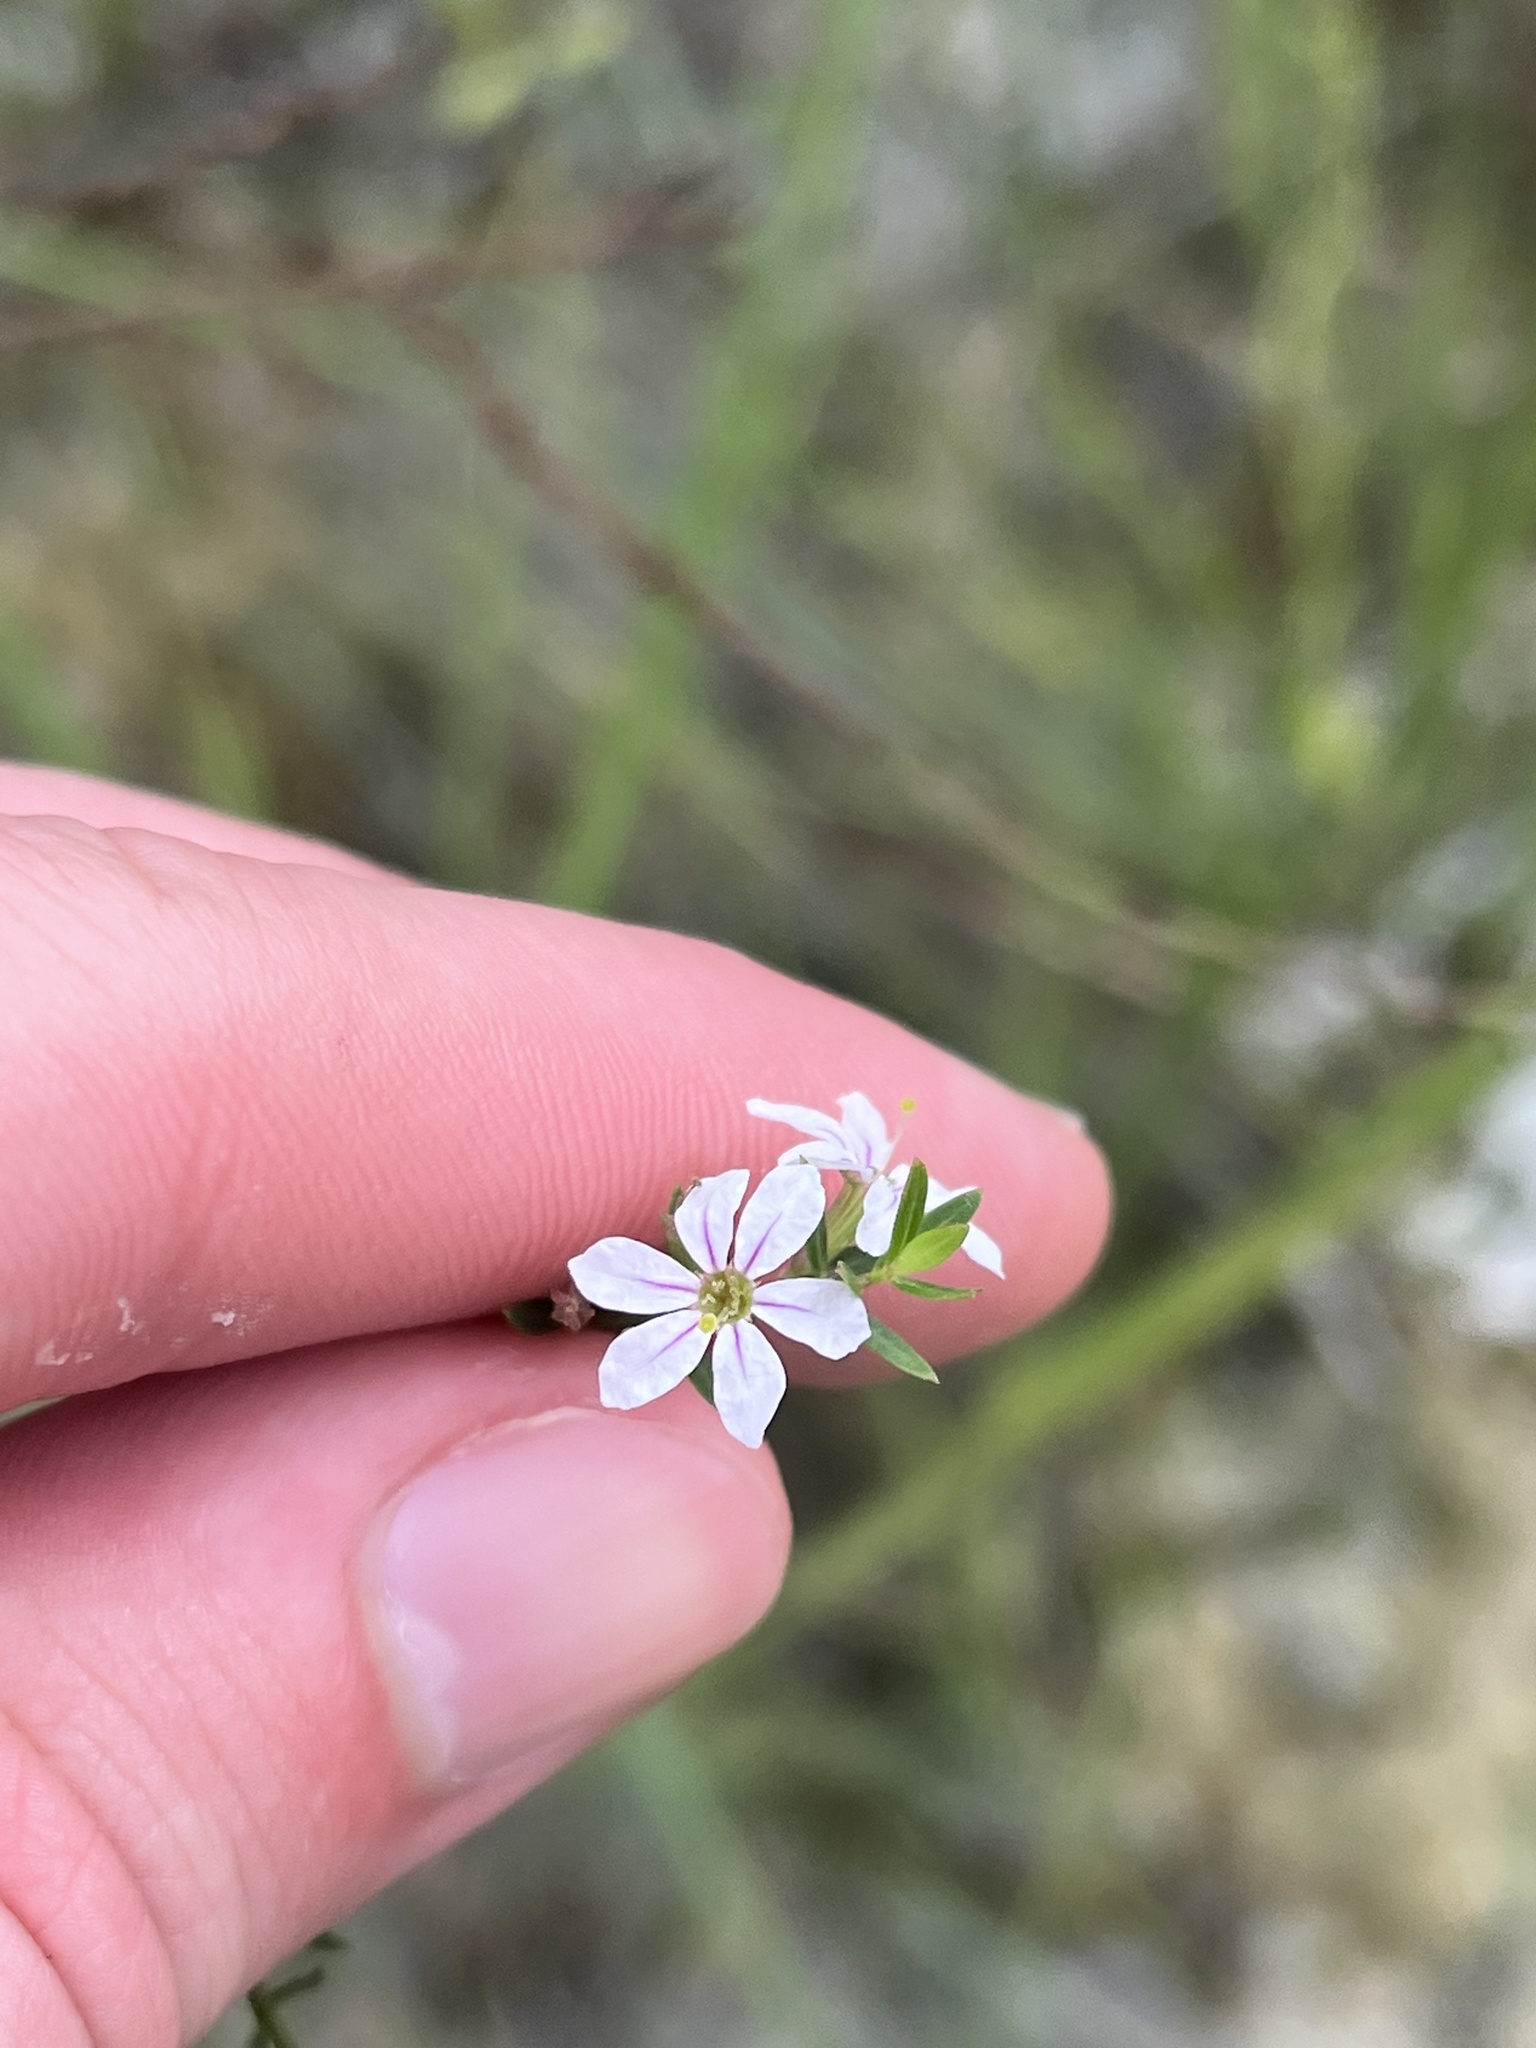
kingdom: Plantae
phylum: Tracheophyta
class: Magnoliopsida
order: Myrtales
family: Lythraceae
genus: Lythrum
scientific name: Lythrum lineare
